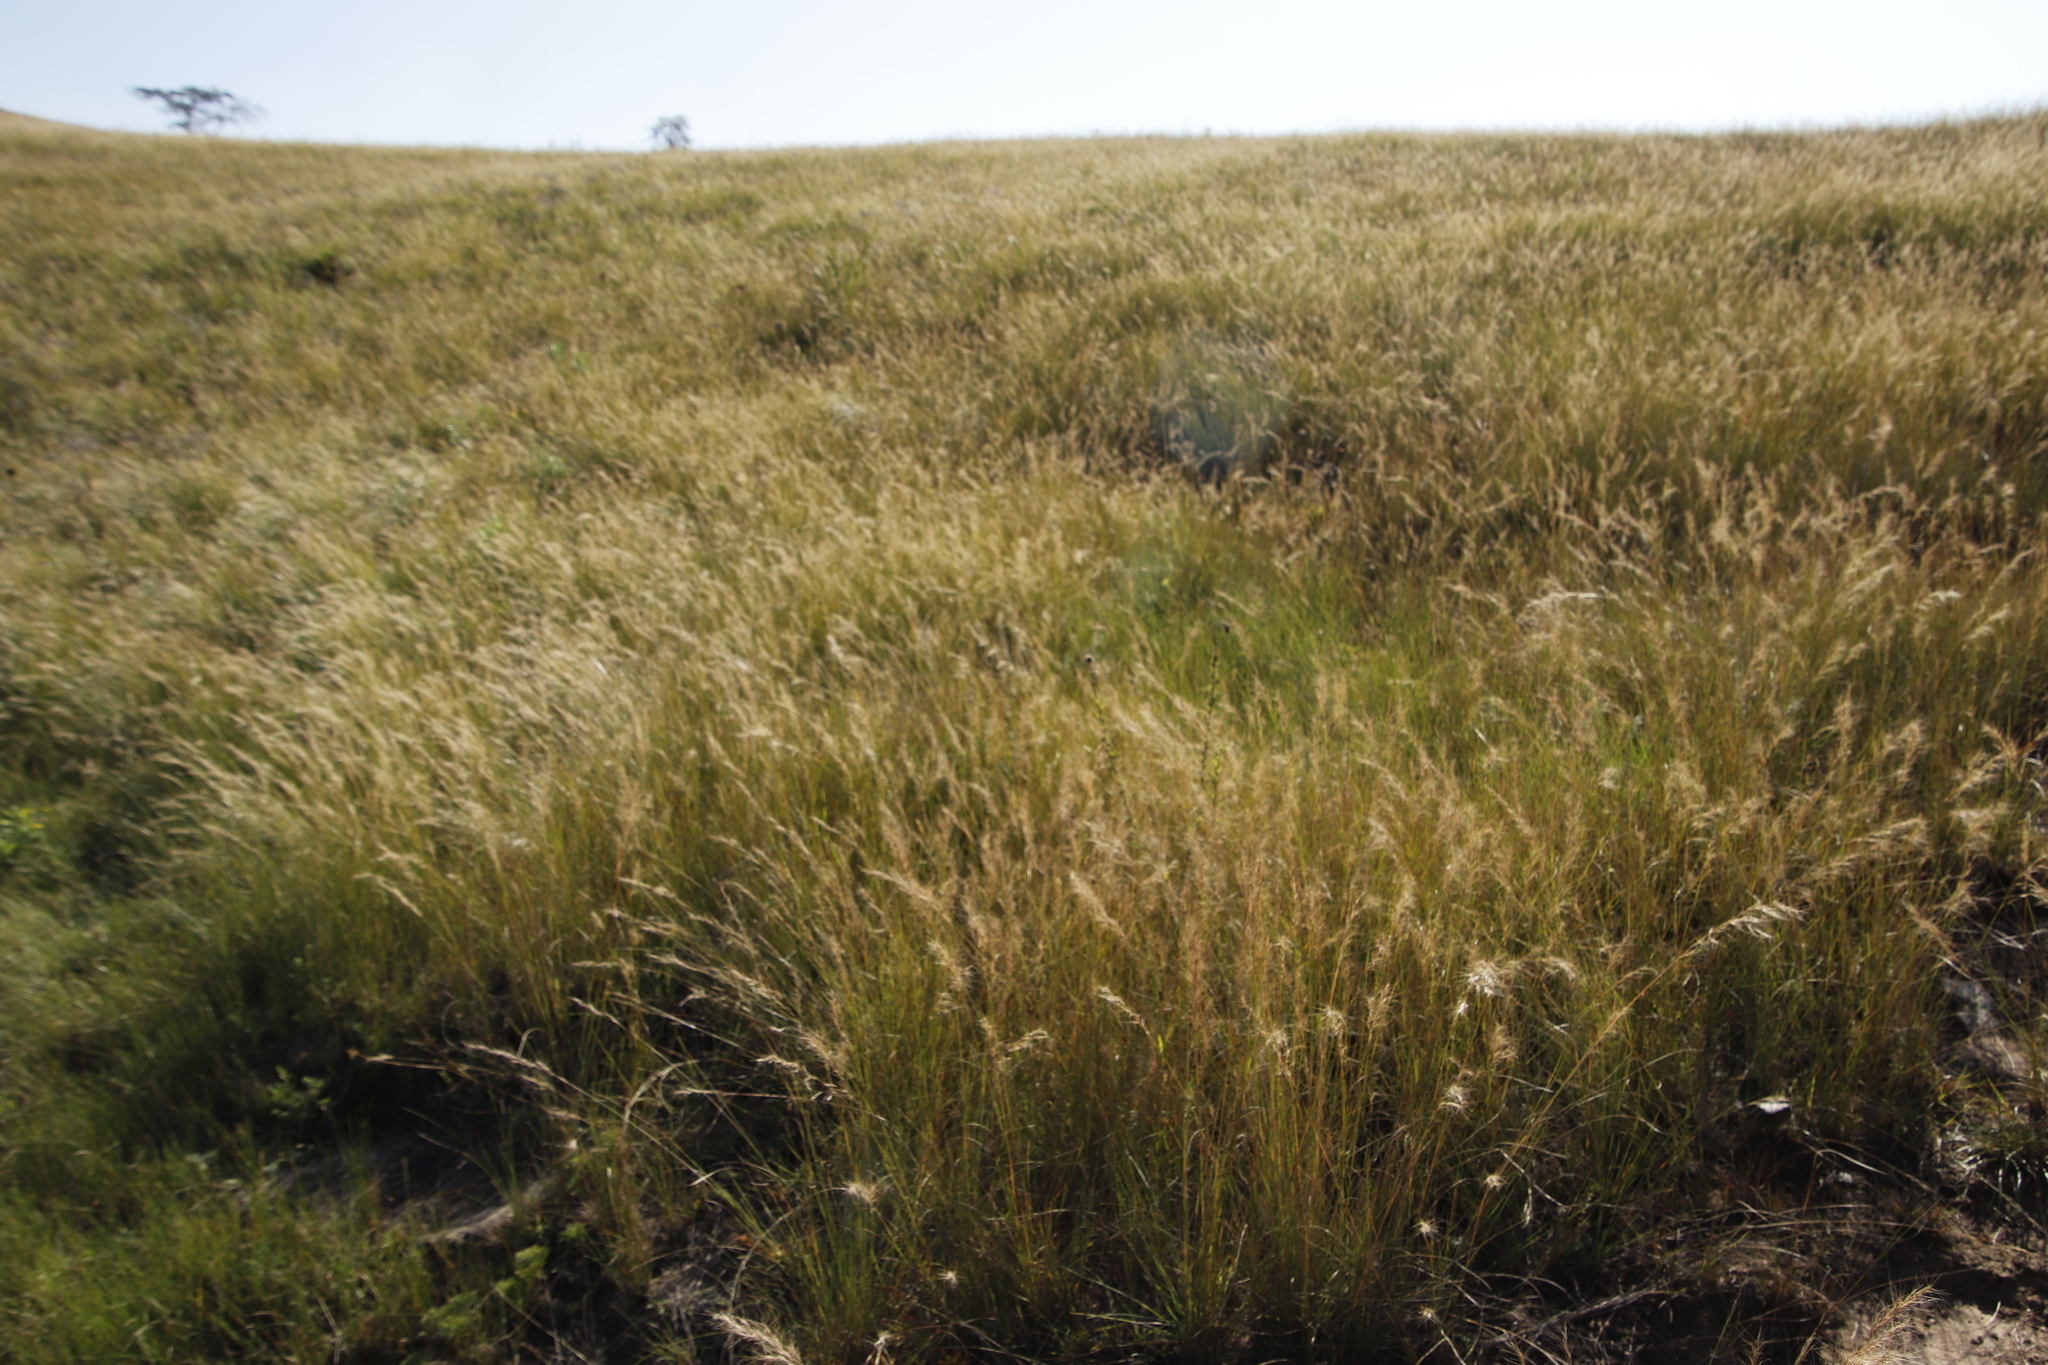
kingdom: Plantae
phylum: Tracheophyta
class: Liliopsida
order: Poales
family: Poaceae
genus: Aristida
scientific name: Aristida junciformis
